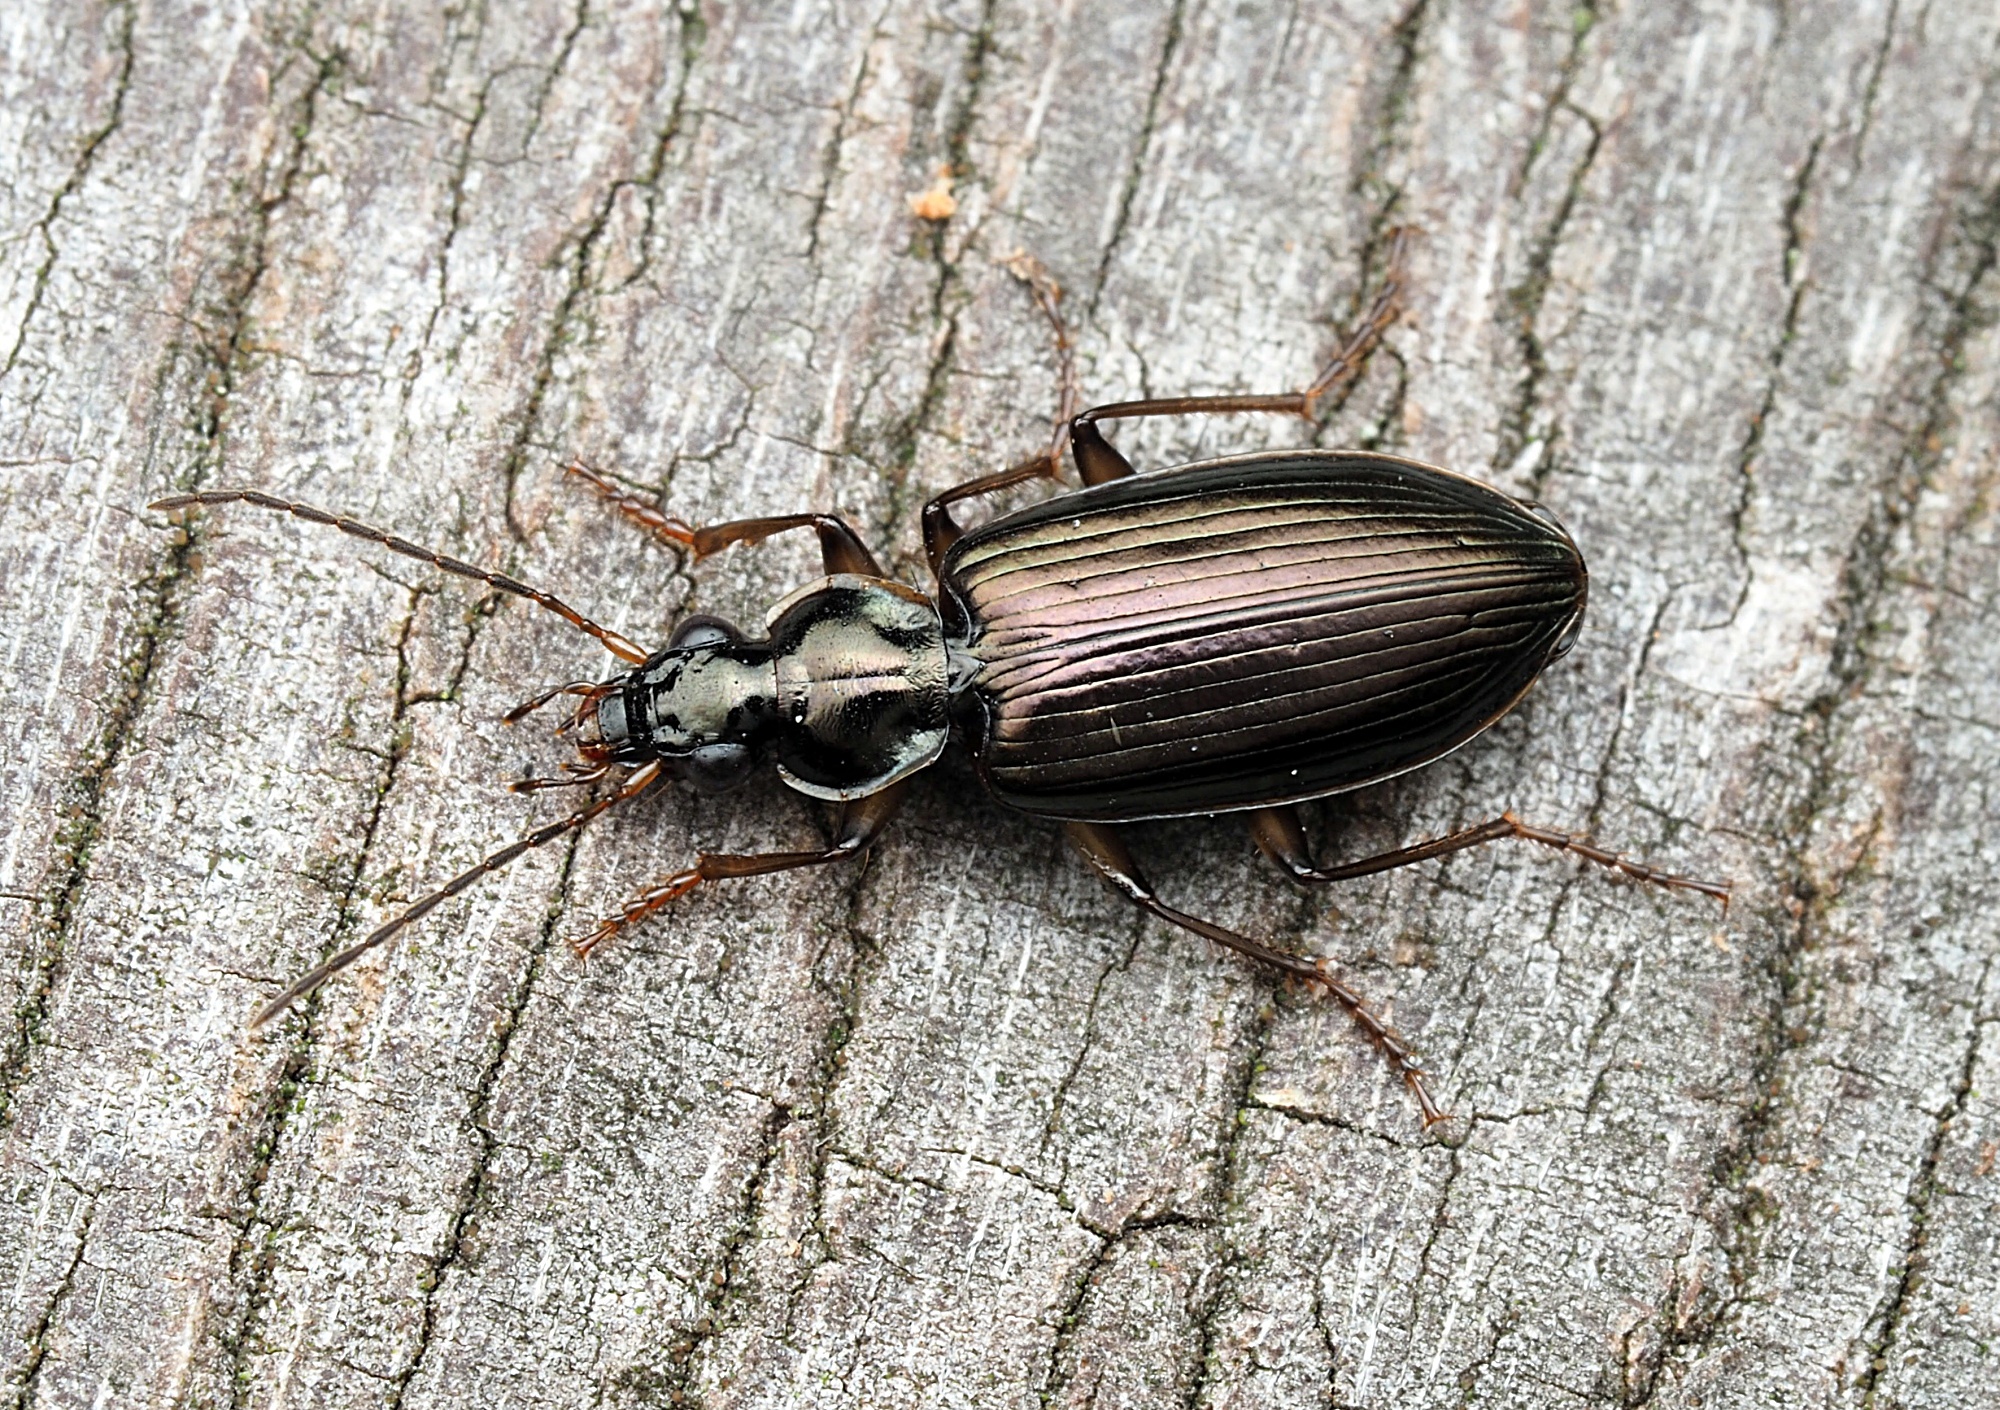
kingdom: Animalia
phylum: Arthropoda
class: Insecta
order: Coleoptera
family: Carabidae
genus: Notagonum
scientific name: Notagonum submetallicum
